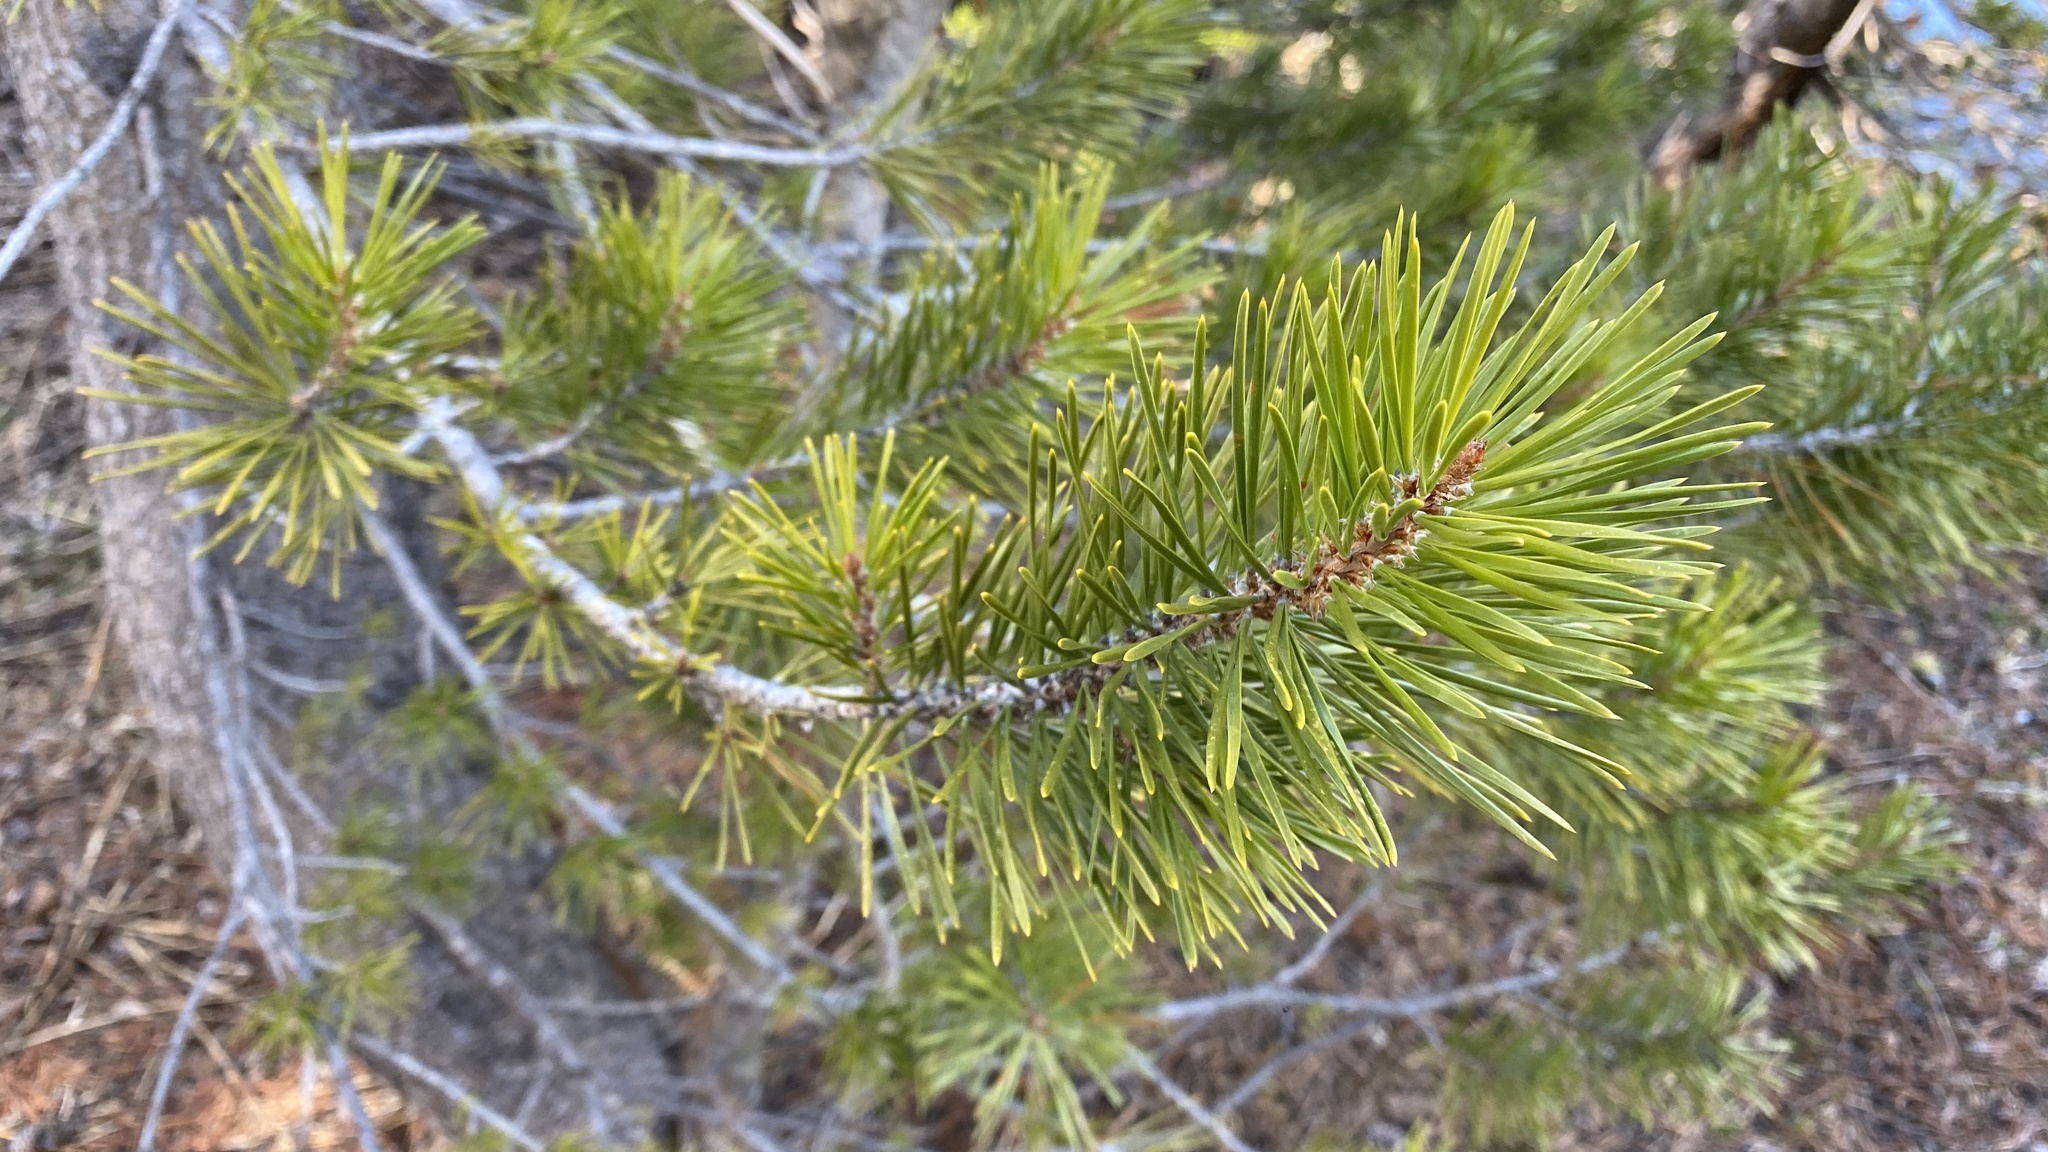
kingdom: Plantae
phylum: Tracheophyta
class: Pinopsida
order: Pinales
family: Pinaceae
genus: Pinus
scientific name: Pinus contorta
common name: Lodgepole pine
